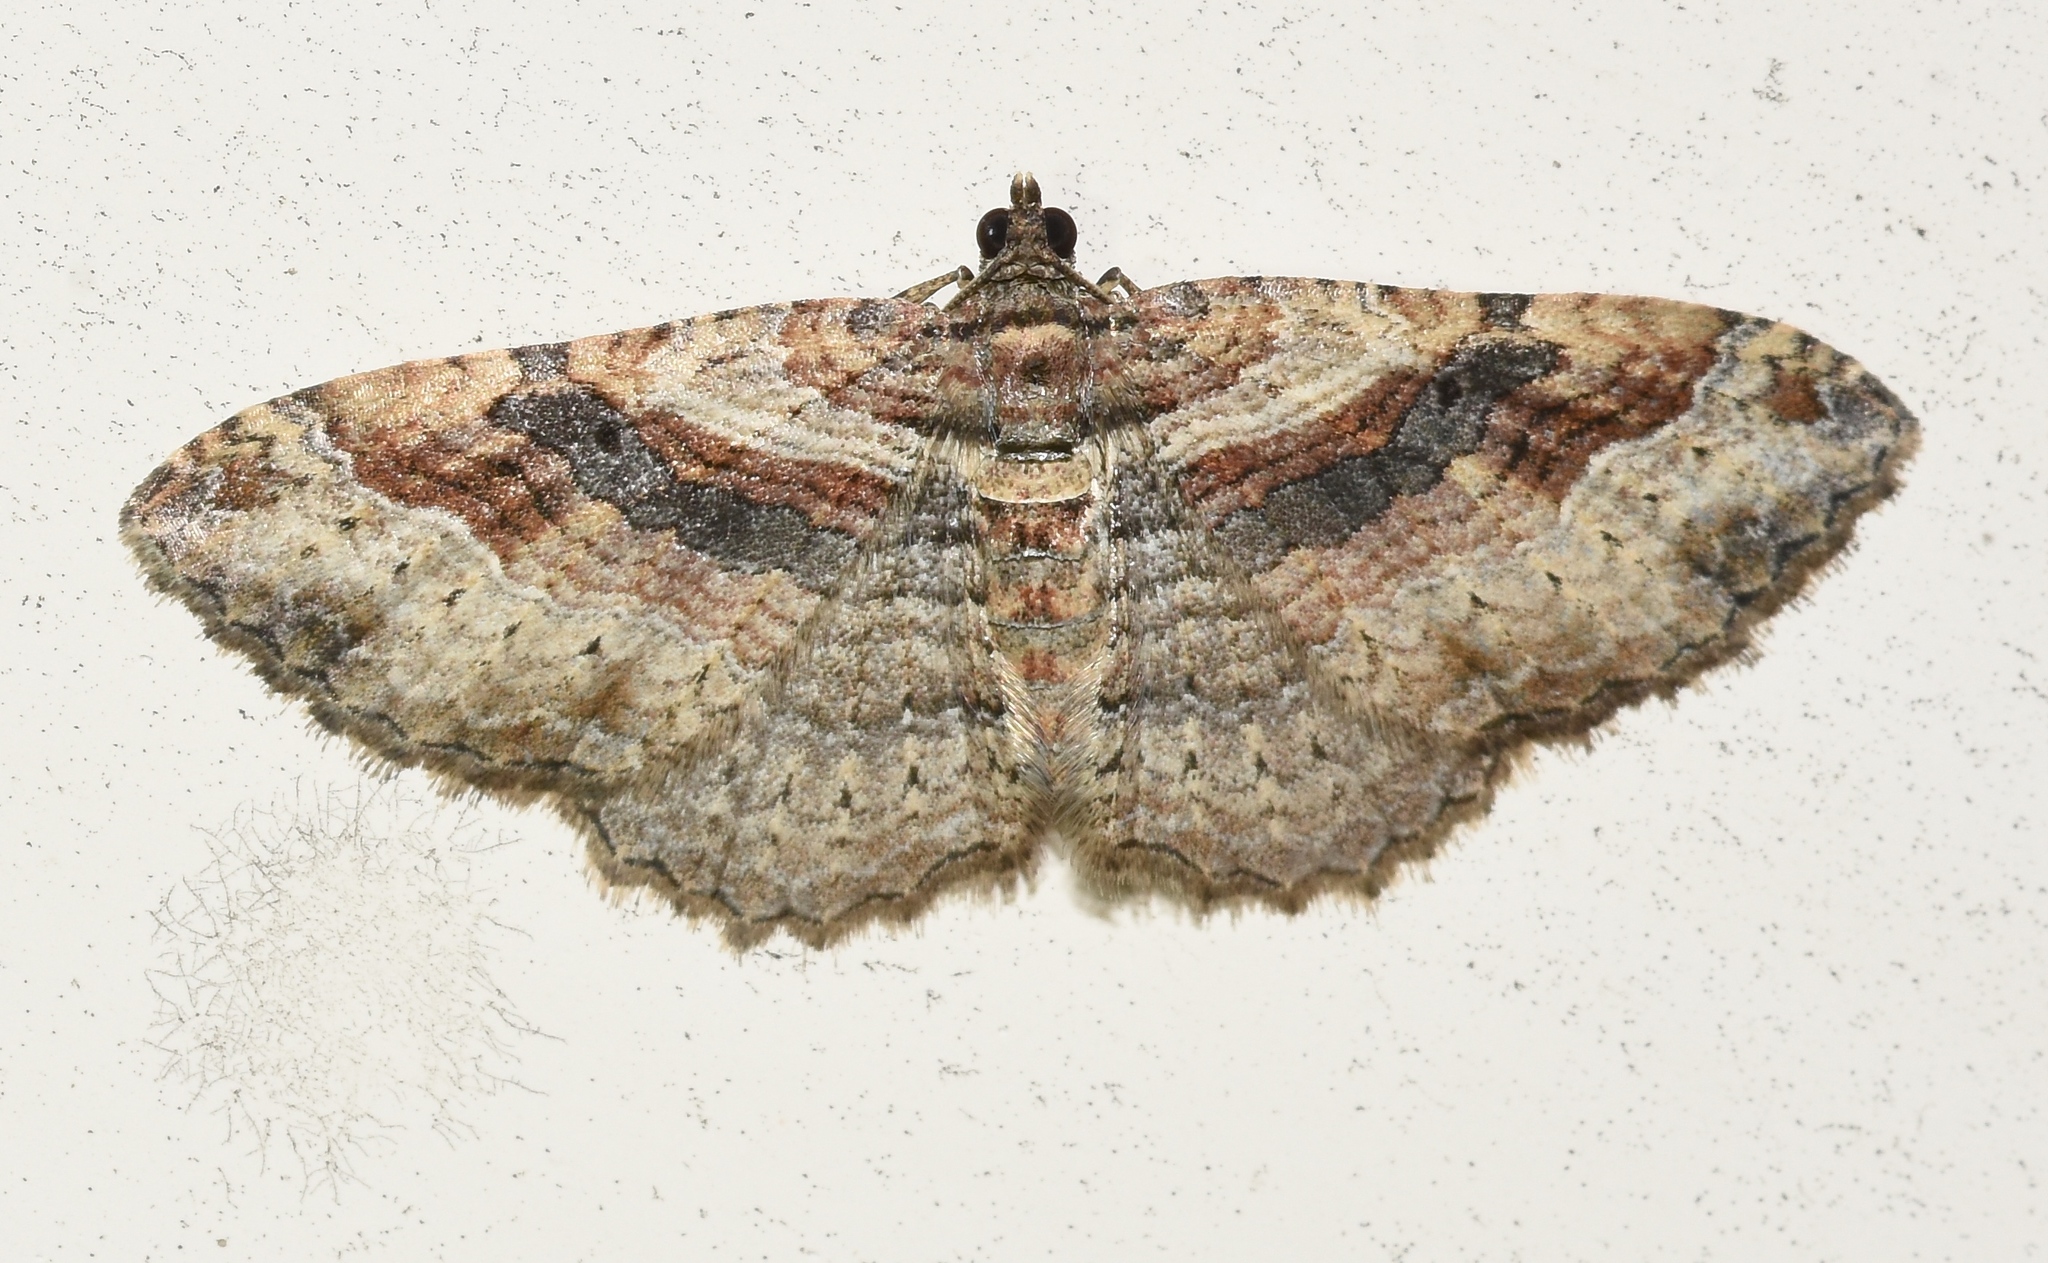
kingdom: Animalia
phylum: Arthropoda
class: Insecta
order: Lepidoptera
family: Geometridae
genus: Costaconvexa
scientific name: Costaconvexa centrostrigaria
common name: Bent-line carpet
